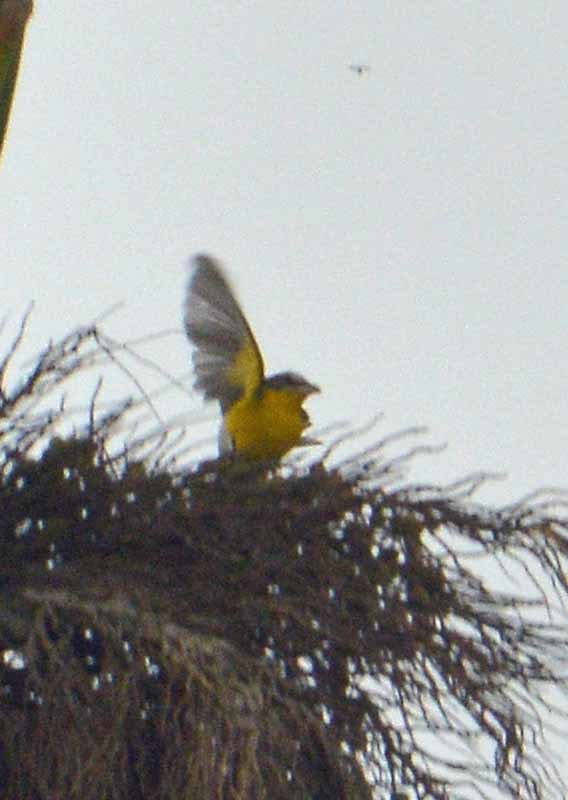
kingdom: Animalia
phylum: Chordata
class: Aves
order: Passeriformes
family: Parulidae
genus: Icteria
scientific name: Icteria virens
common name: Yellow-breasted chat
